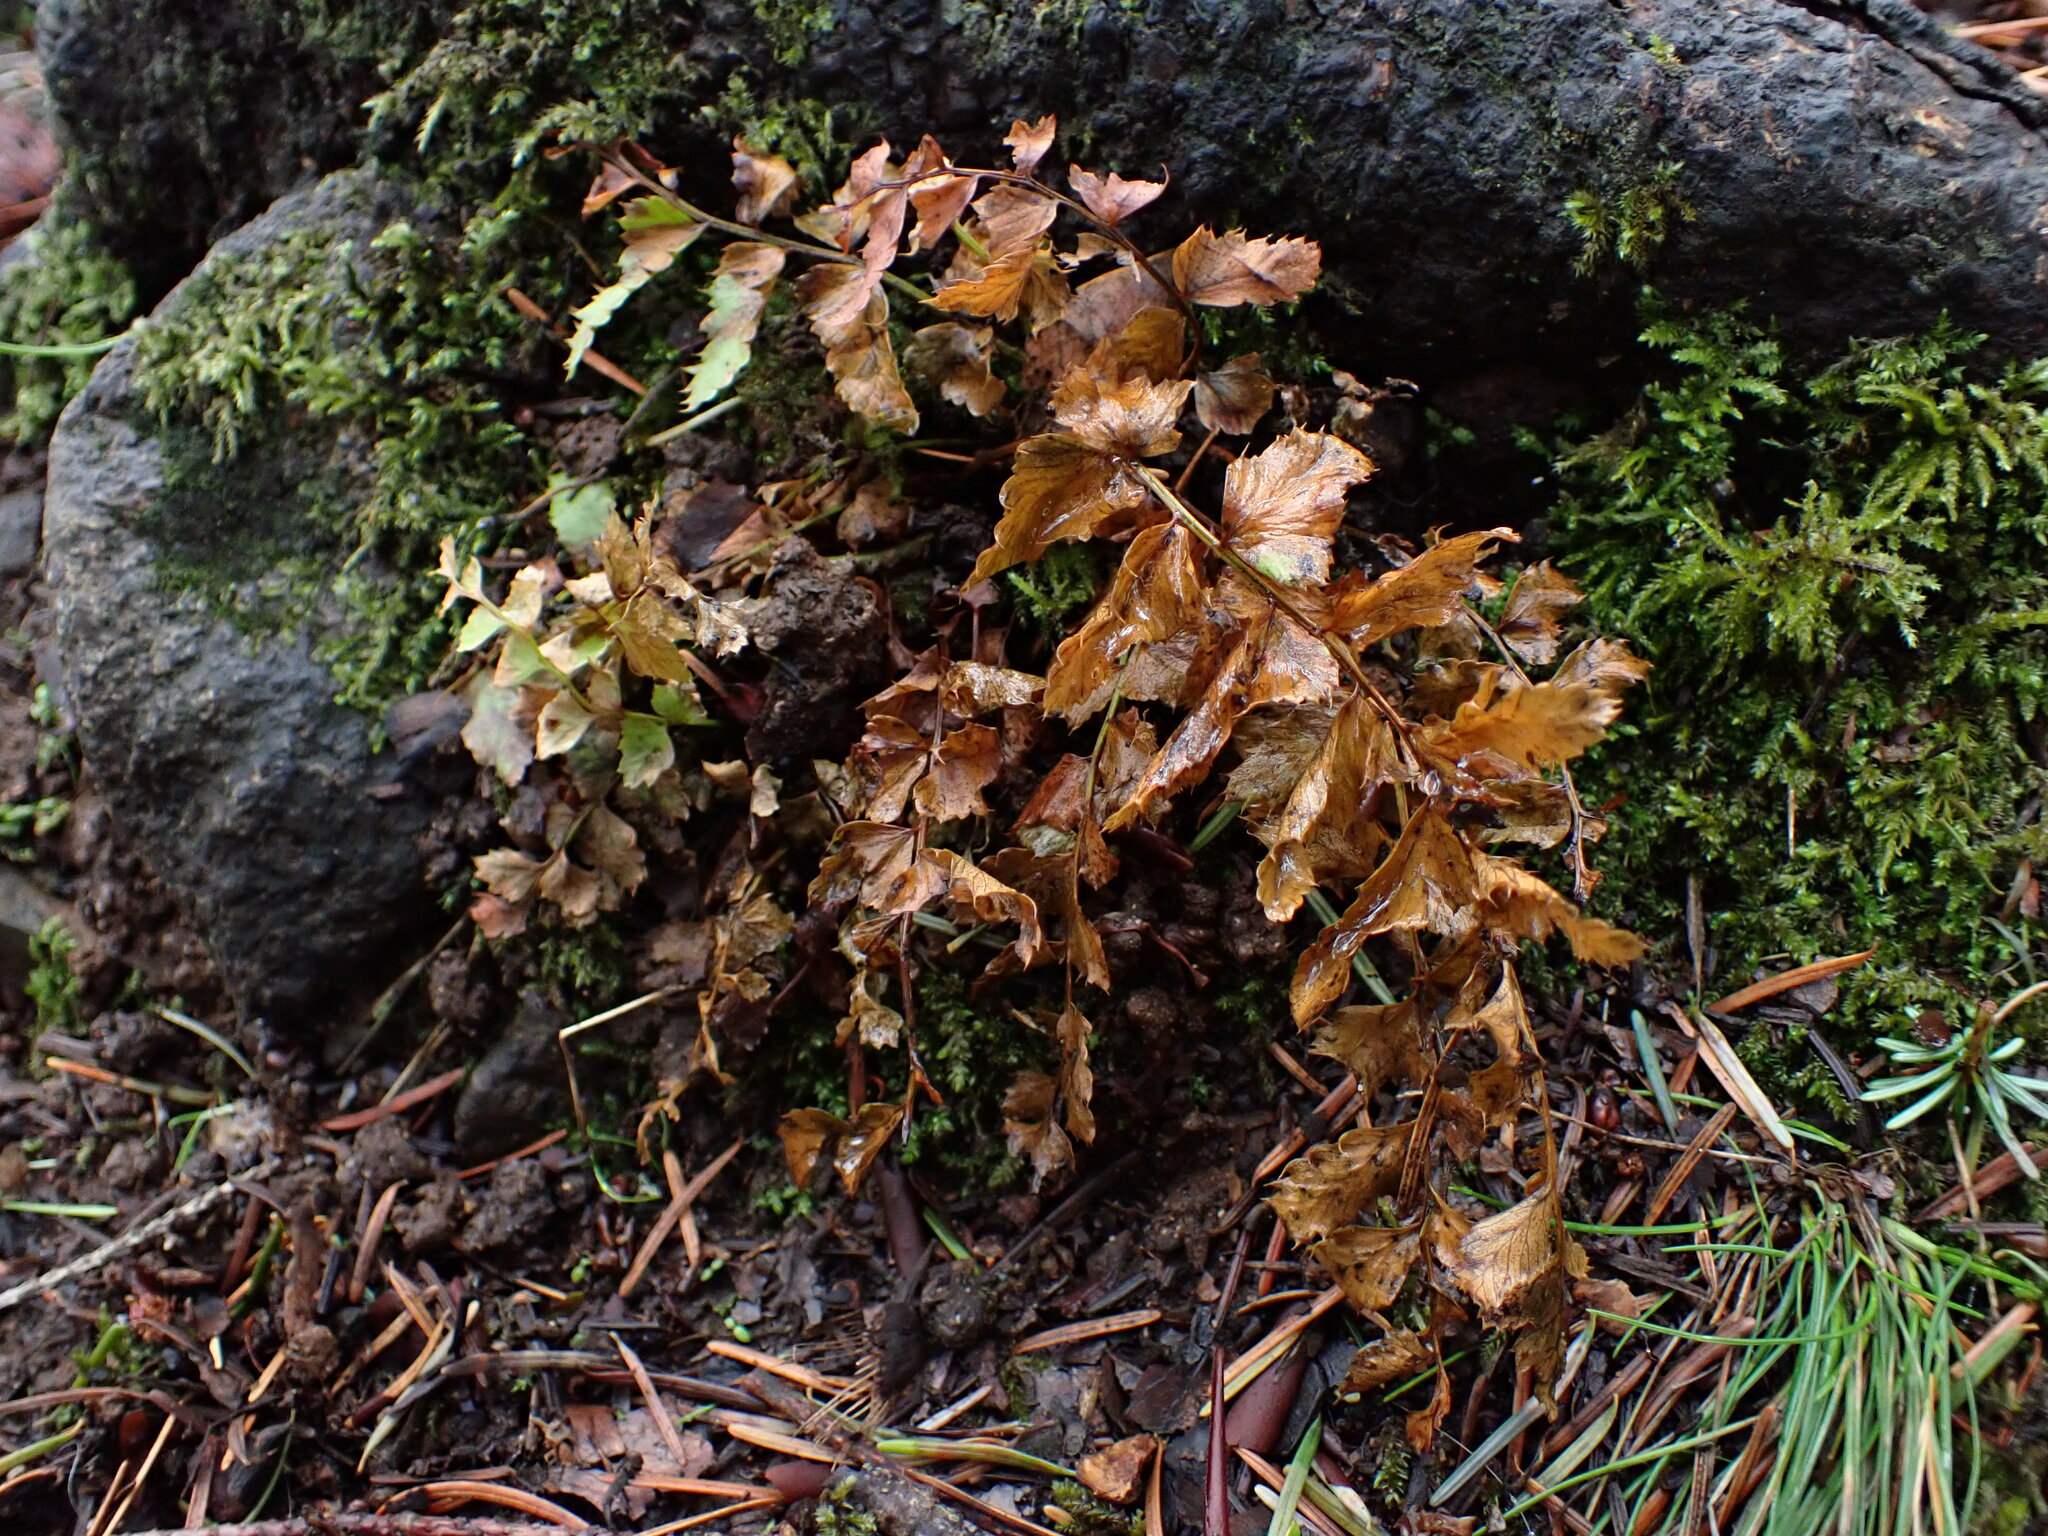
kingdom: Plantae
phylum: Tracheophyta
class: Polypodiopsida
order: Polypodiales
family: Dryopteridaceae
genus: Polystichum
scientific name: Polystichum munitum
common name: Western sword-fern
